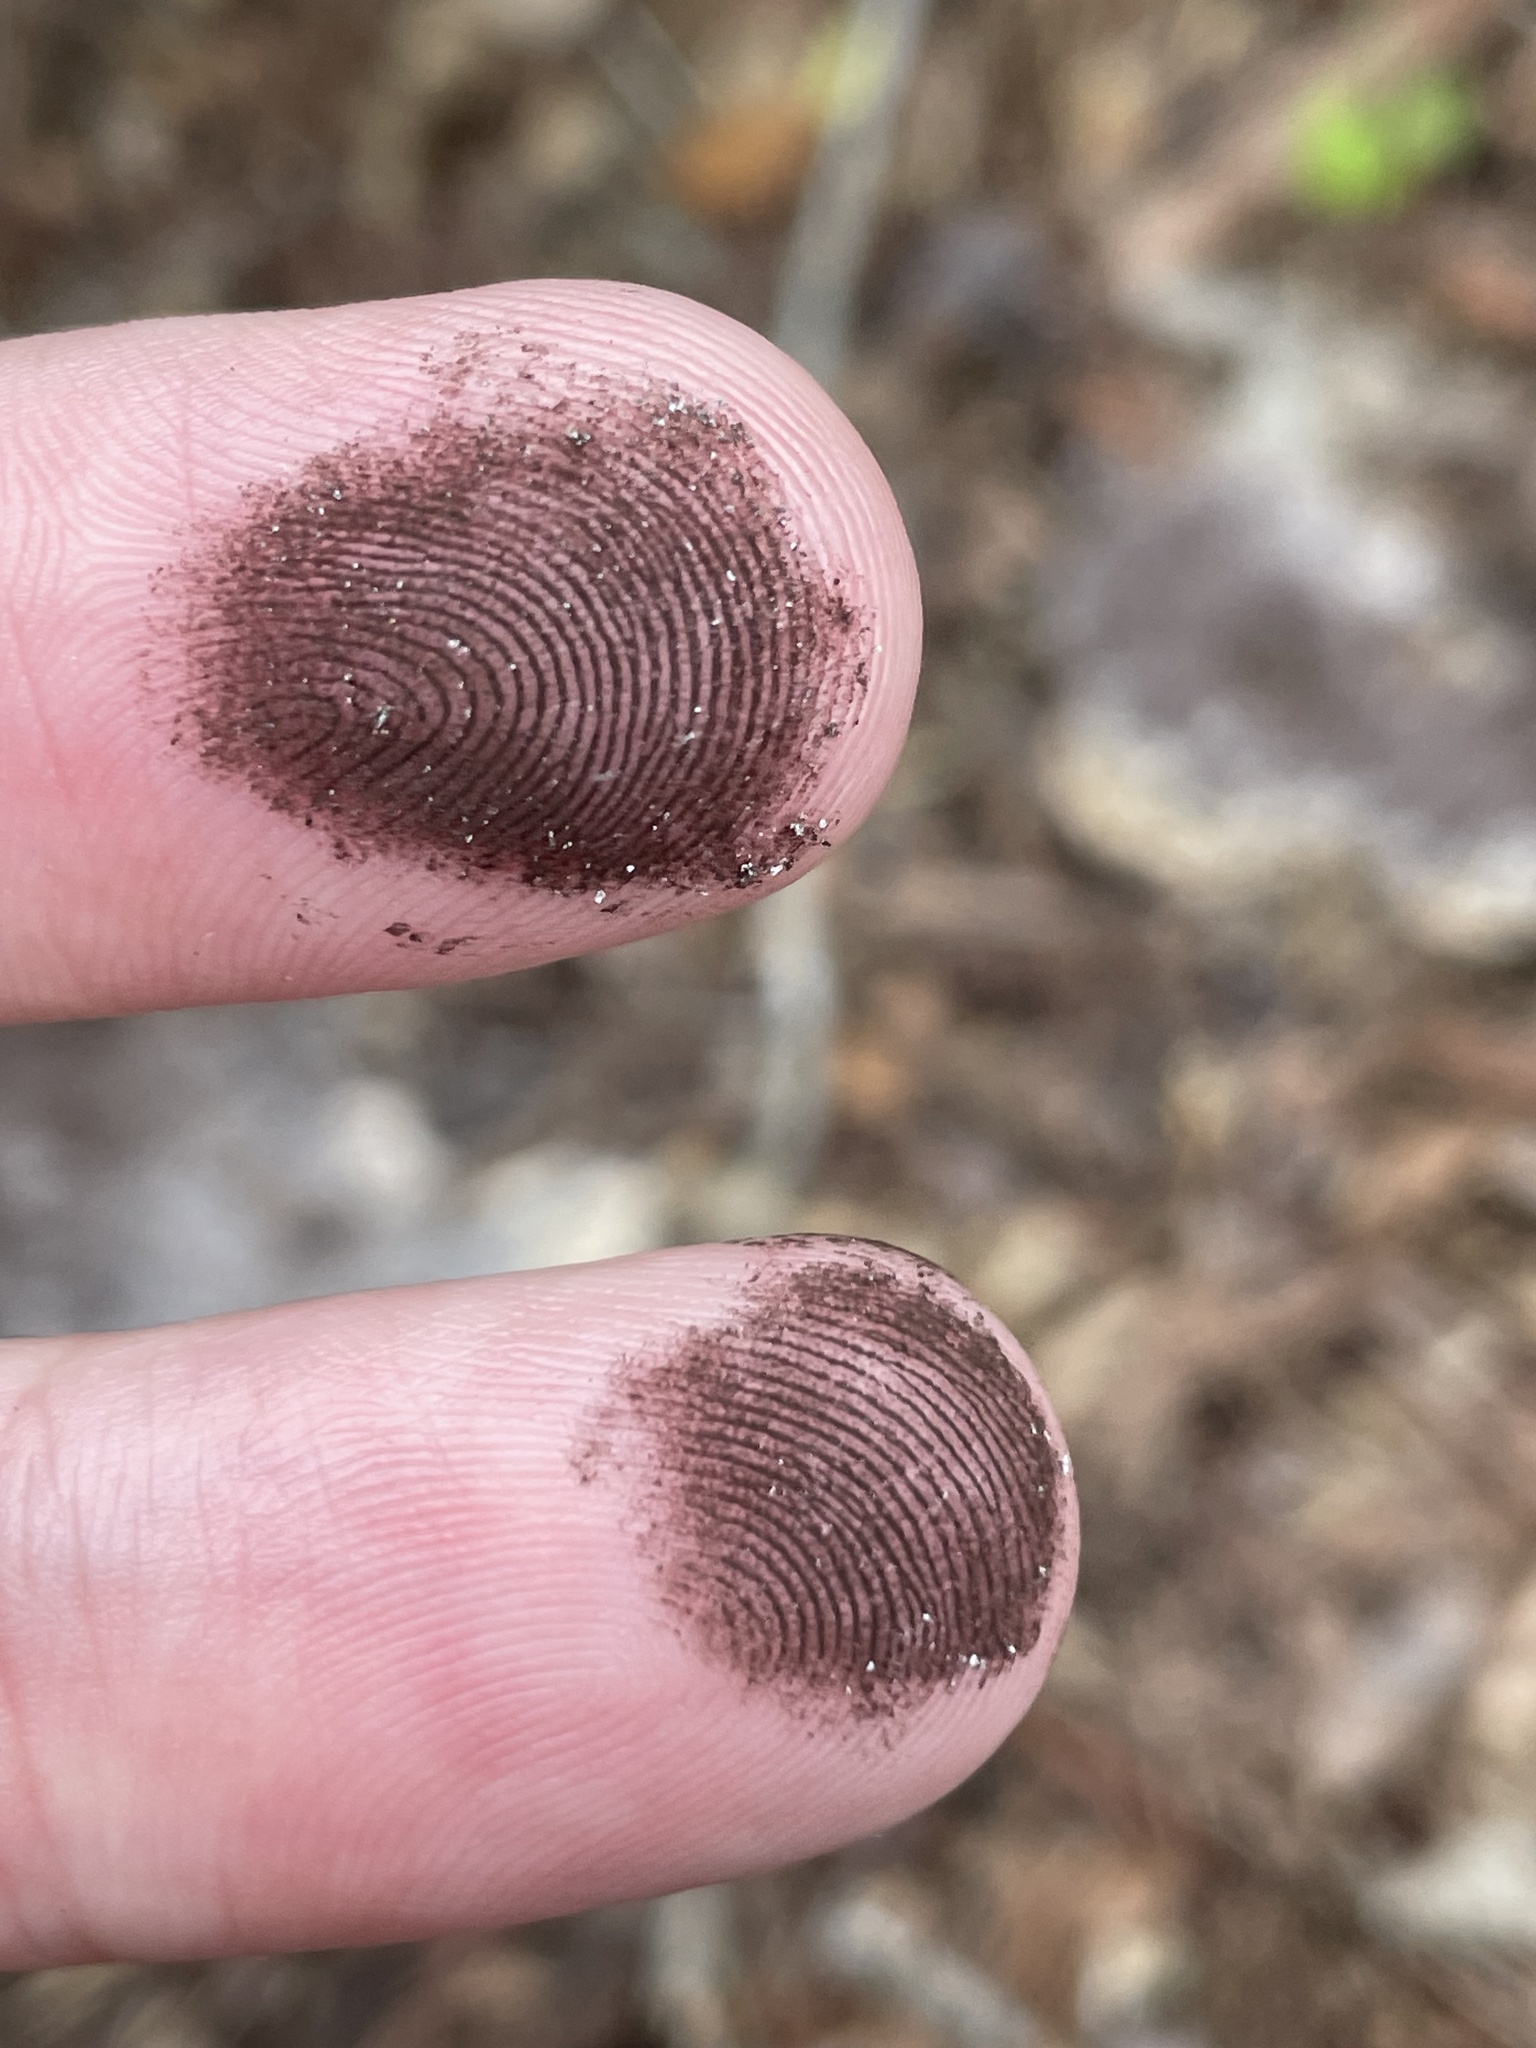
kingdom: Protozoa
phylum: Mycetozoa
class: Myxomycetes
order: Physarales
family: Physaraceae
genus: Fuligo
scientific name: Fuligo septica
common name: Dog vomit slime mold
